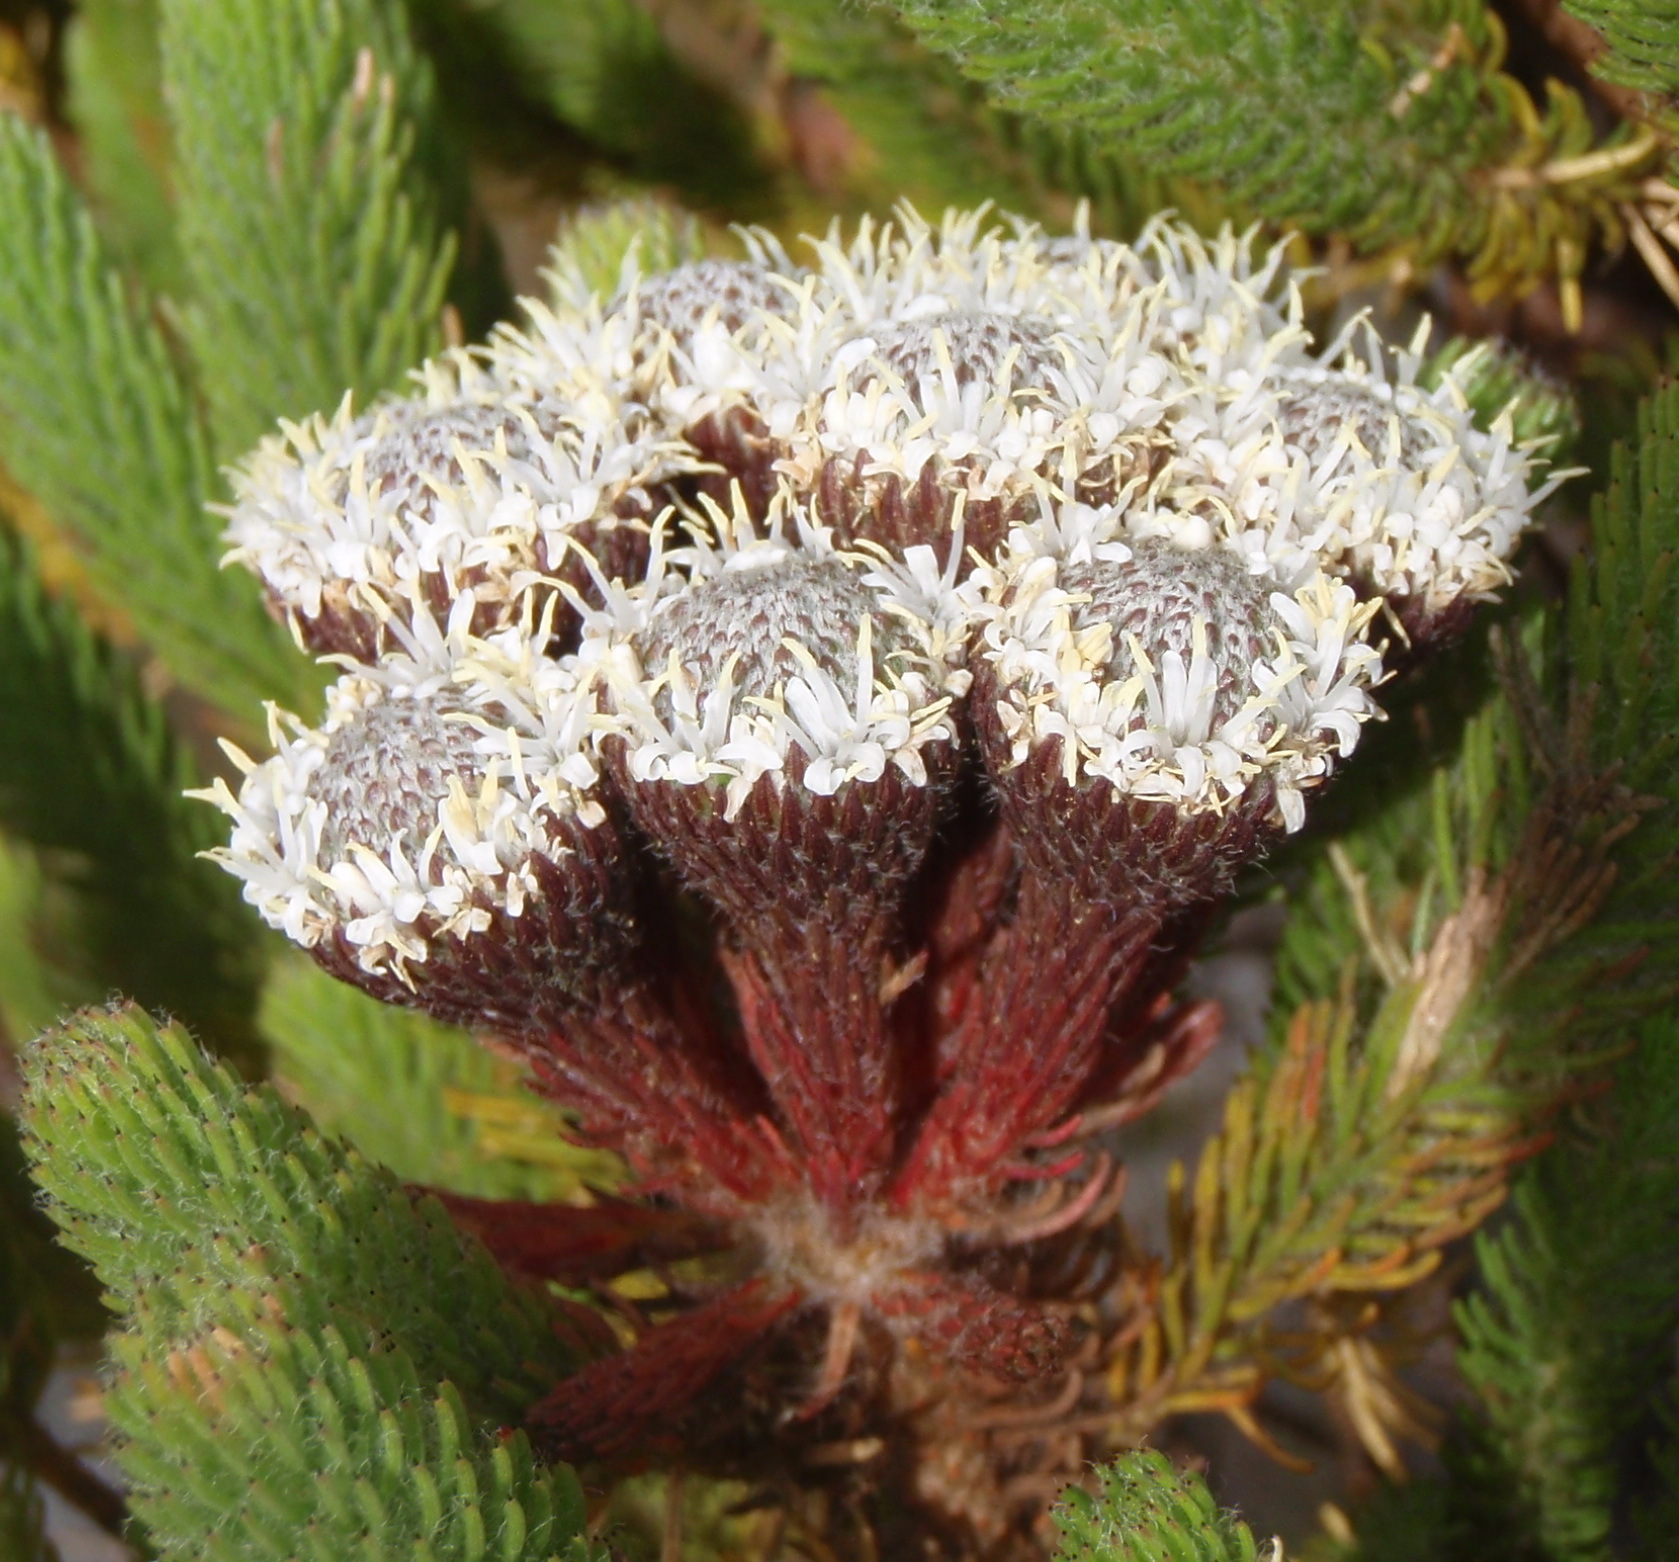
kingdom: Plantae
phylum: Tracheophyta
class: Magnoliopsida
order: Bruniales
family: Bruniaceae
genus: Berzelia
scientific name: Berzelia albiflora
